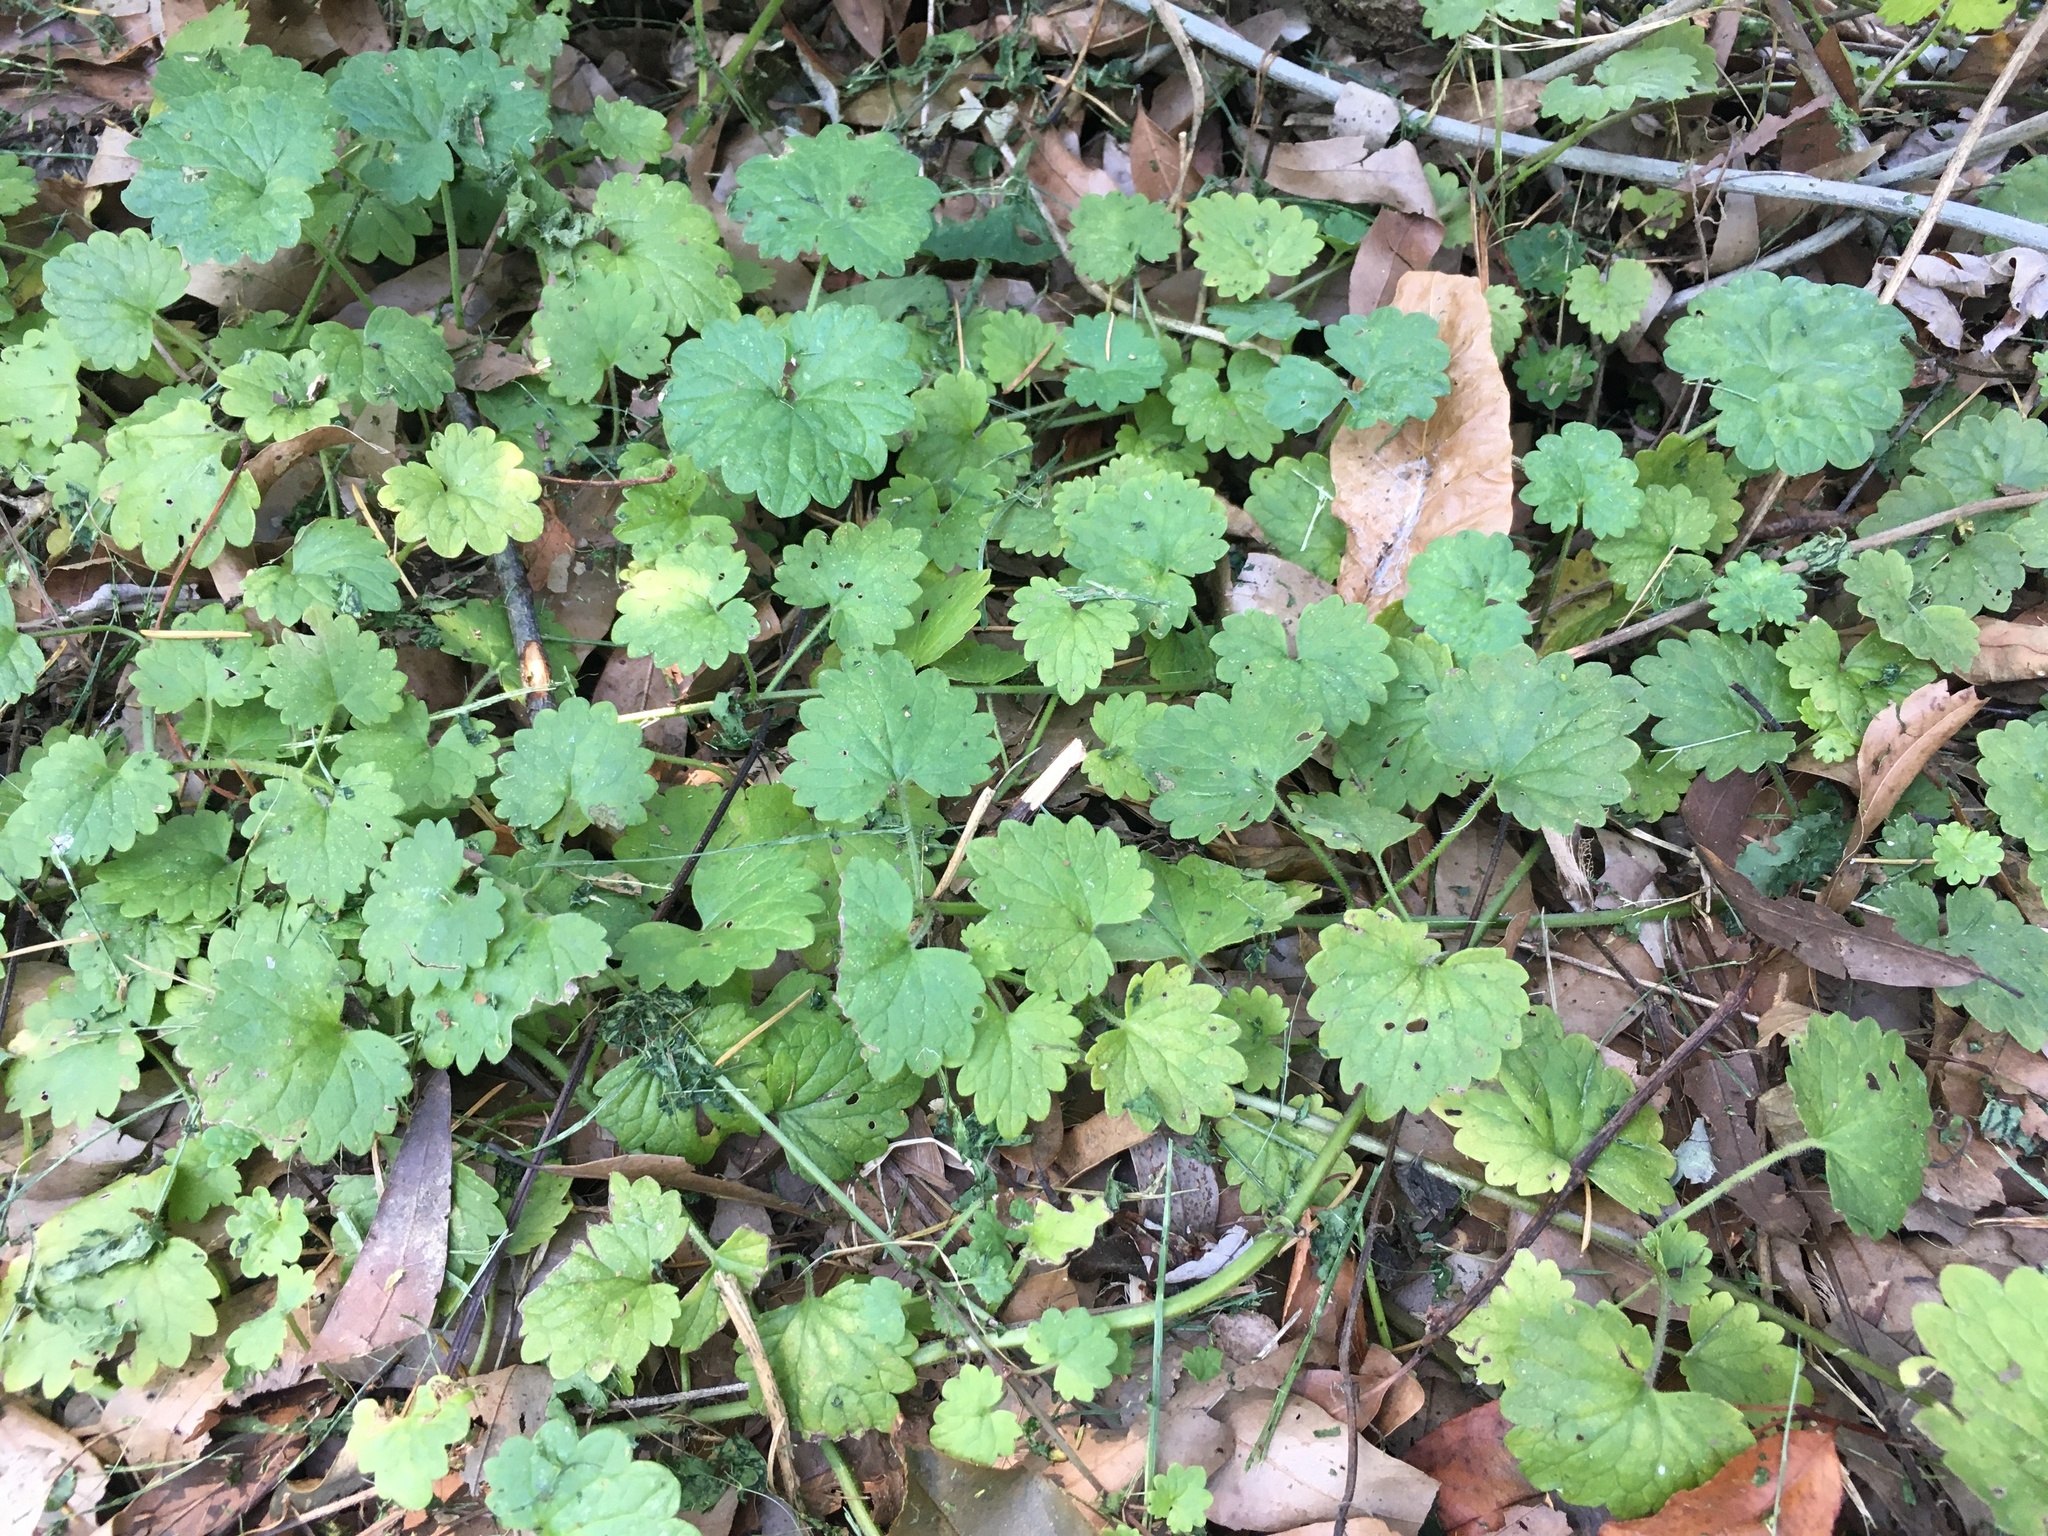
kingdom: Plantae
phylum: Tracheophyta
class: Magnoliopsida
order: Lamiales
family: Lamiaceae
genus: Glechoma
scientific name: Glechoma hederacea
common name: Ground ivy
